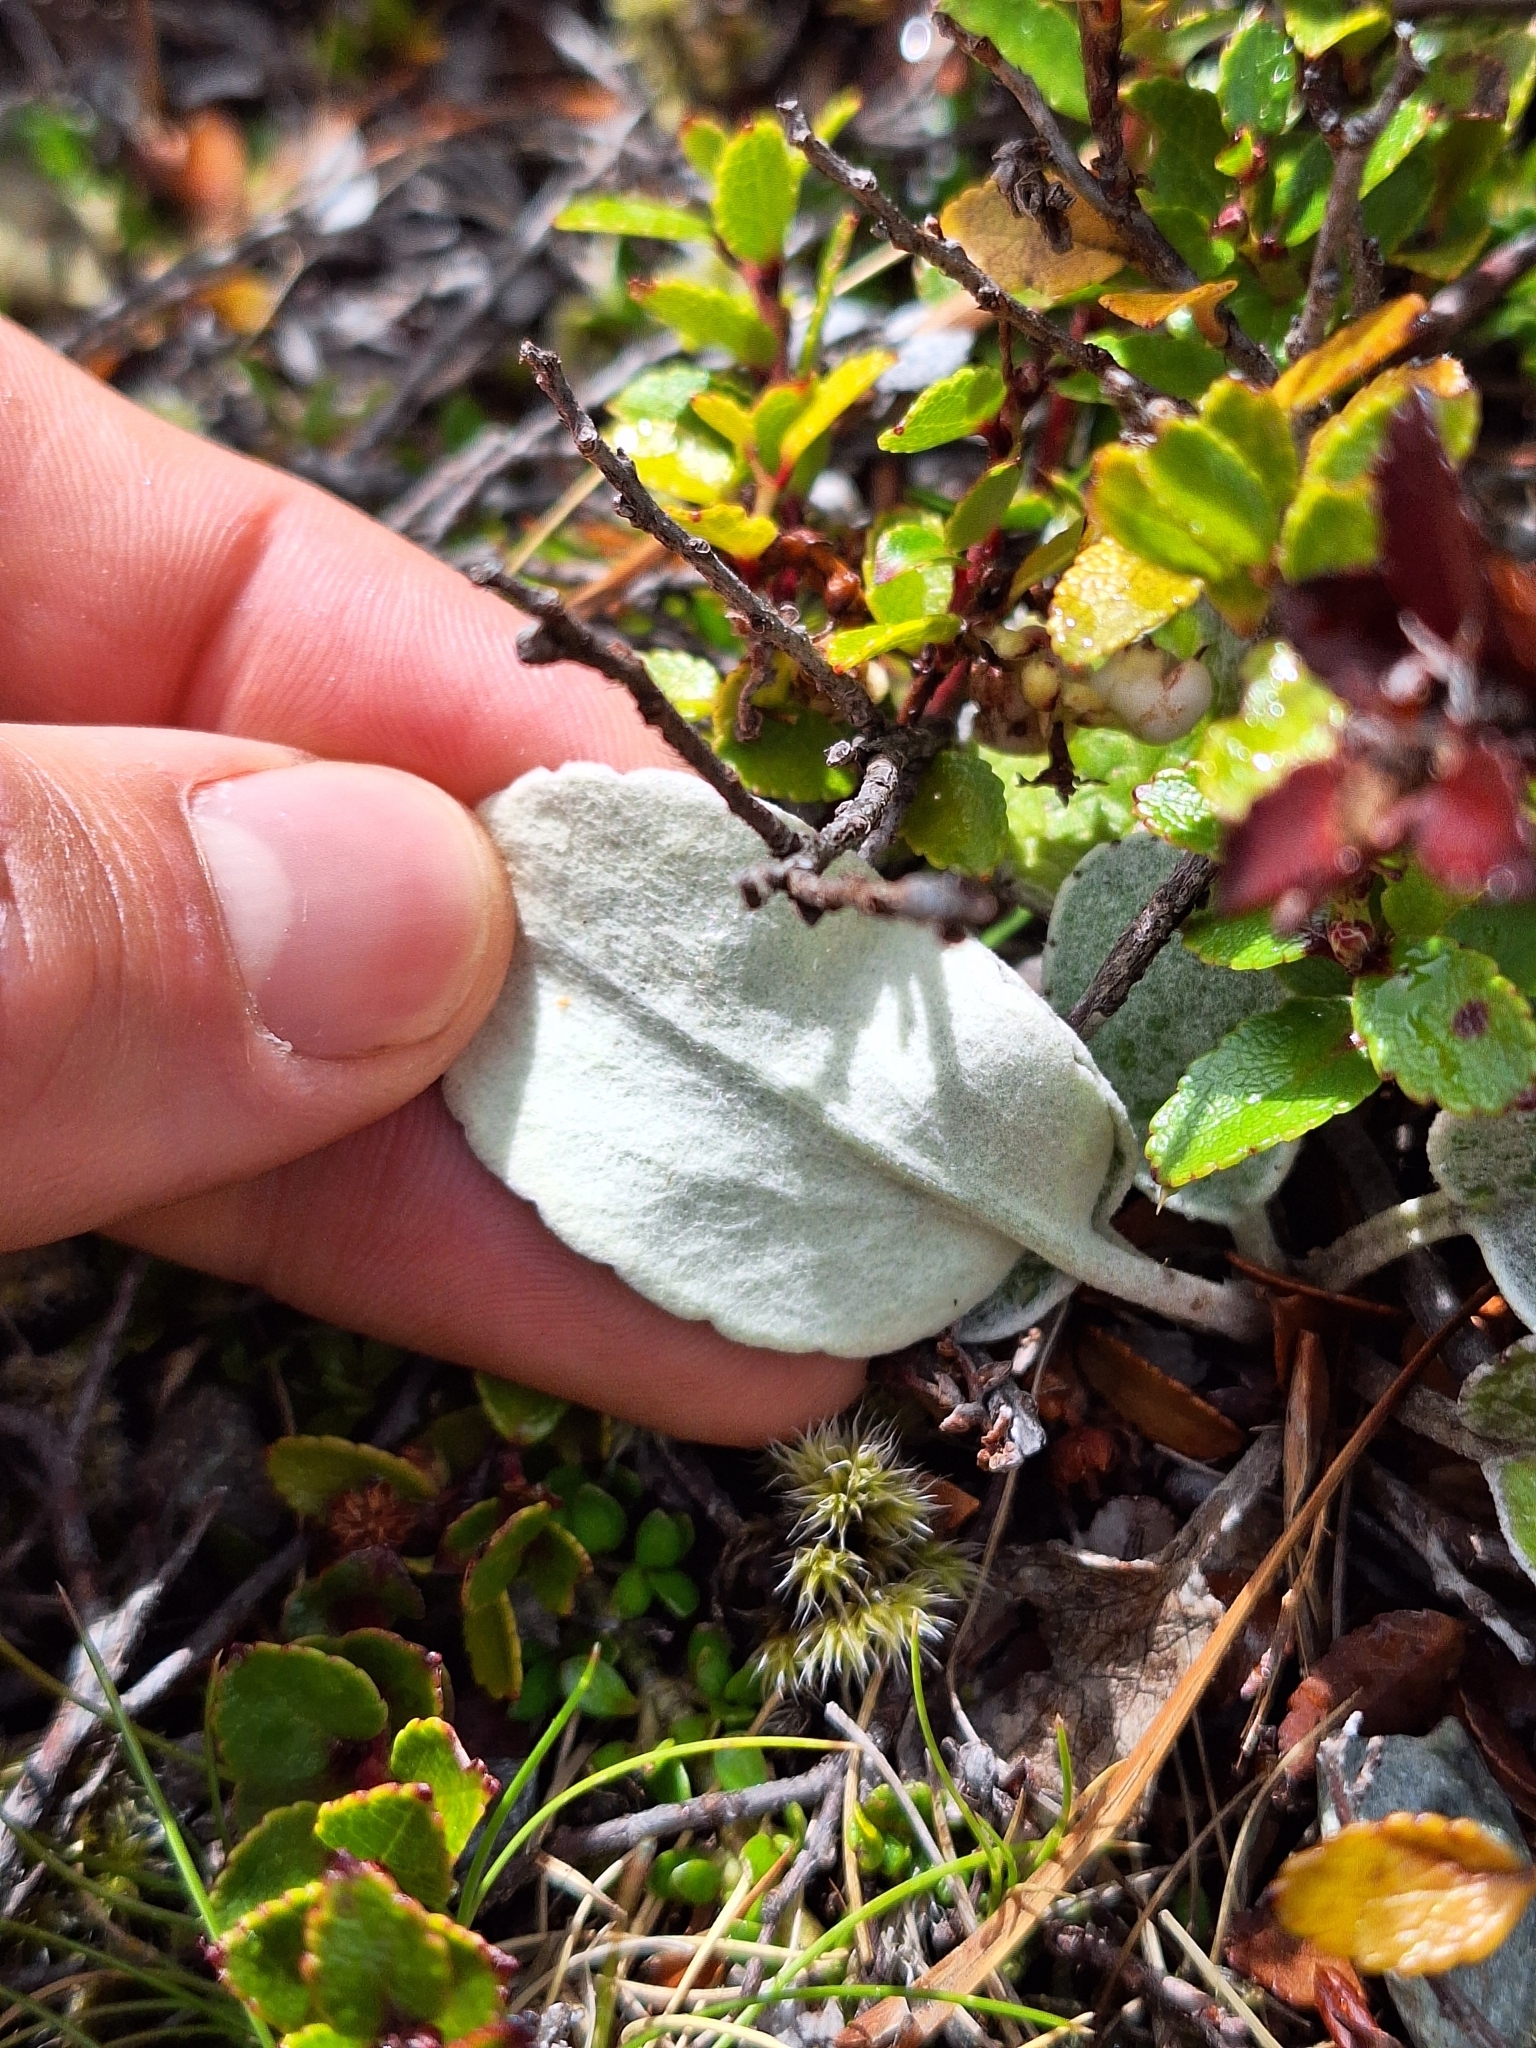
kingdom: Plantae
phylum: Tracheophyta
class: Magnoliopsida
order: Asterales
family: Asteraceae
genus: Brachyglottis
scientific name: Brachyglottis haastii
